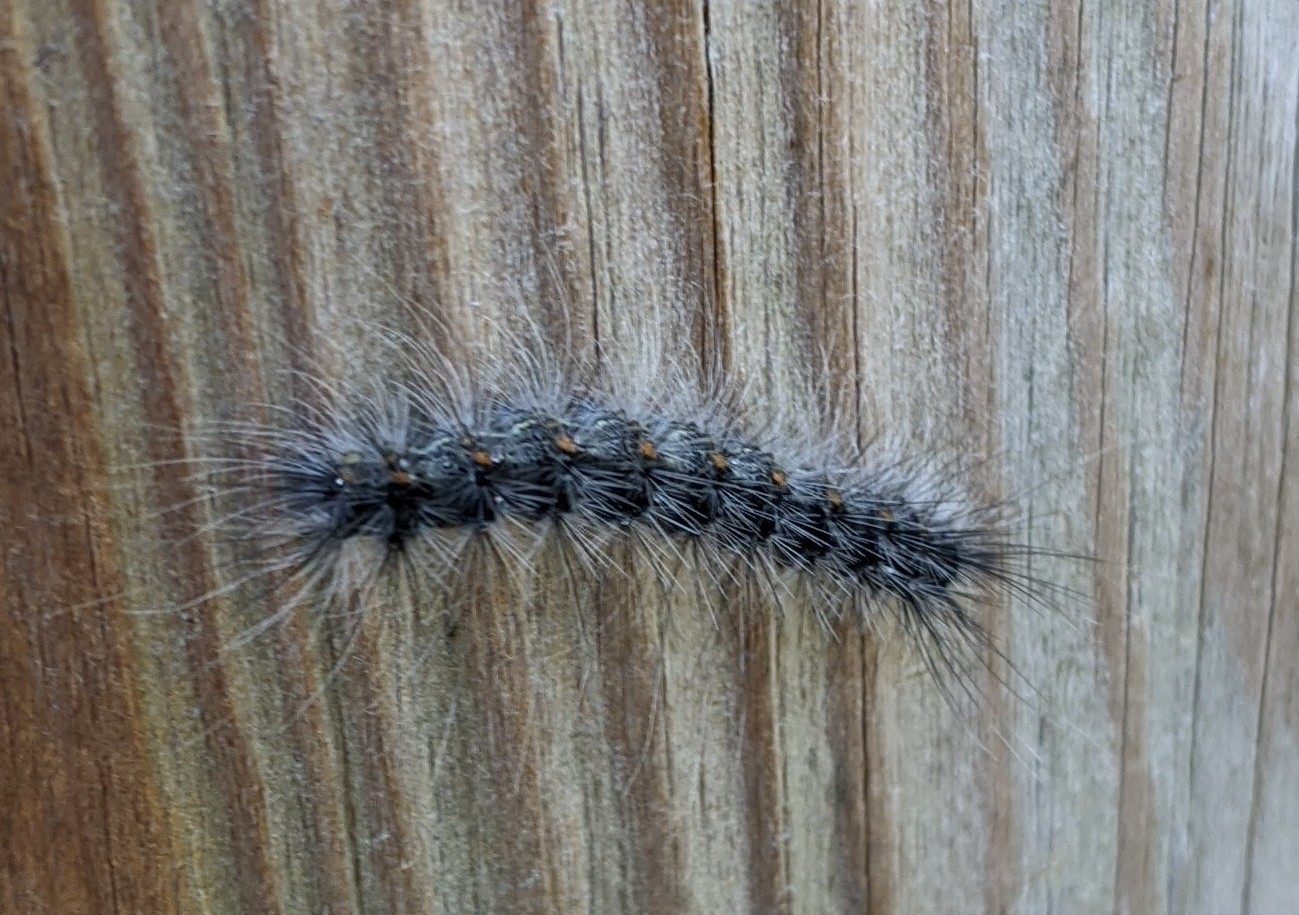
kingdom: Animalia
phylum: Arthropoda
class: Insecta
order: Lepidoptera
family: Erebidae
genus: Hyphantria
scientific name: Hyphantria cunea
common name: American white moth
